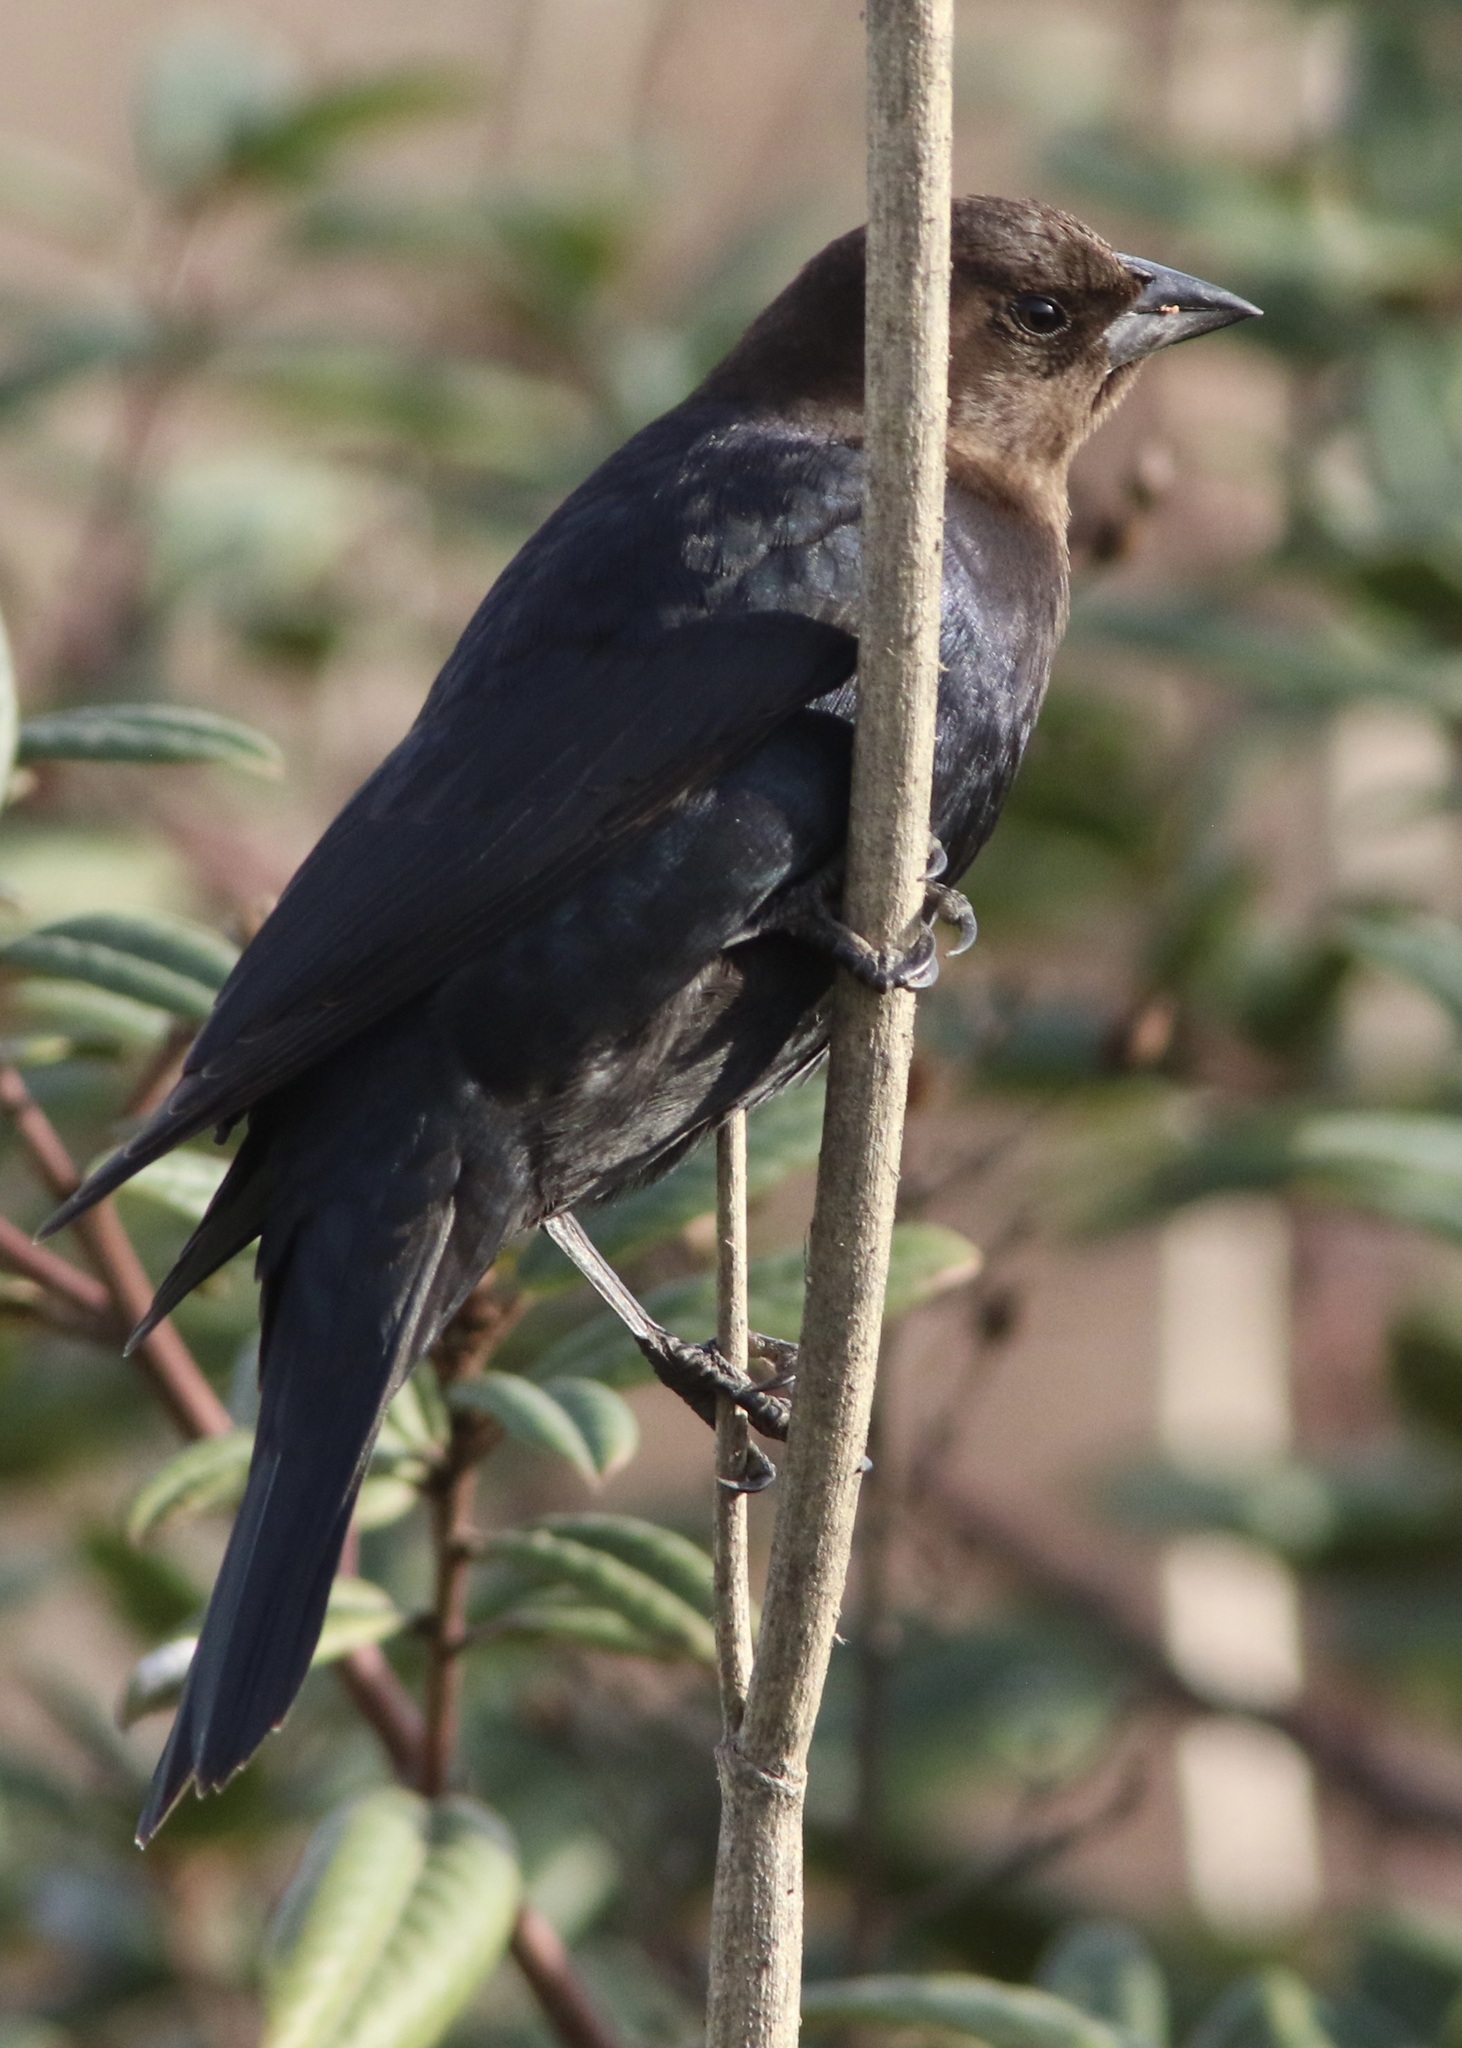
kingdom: Animalia
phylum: Chordata
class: Aves
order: Passeriformes
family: Icteridae
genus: Molothrus
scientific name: Molothrus ater
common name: Brown-headed cowbird
